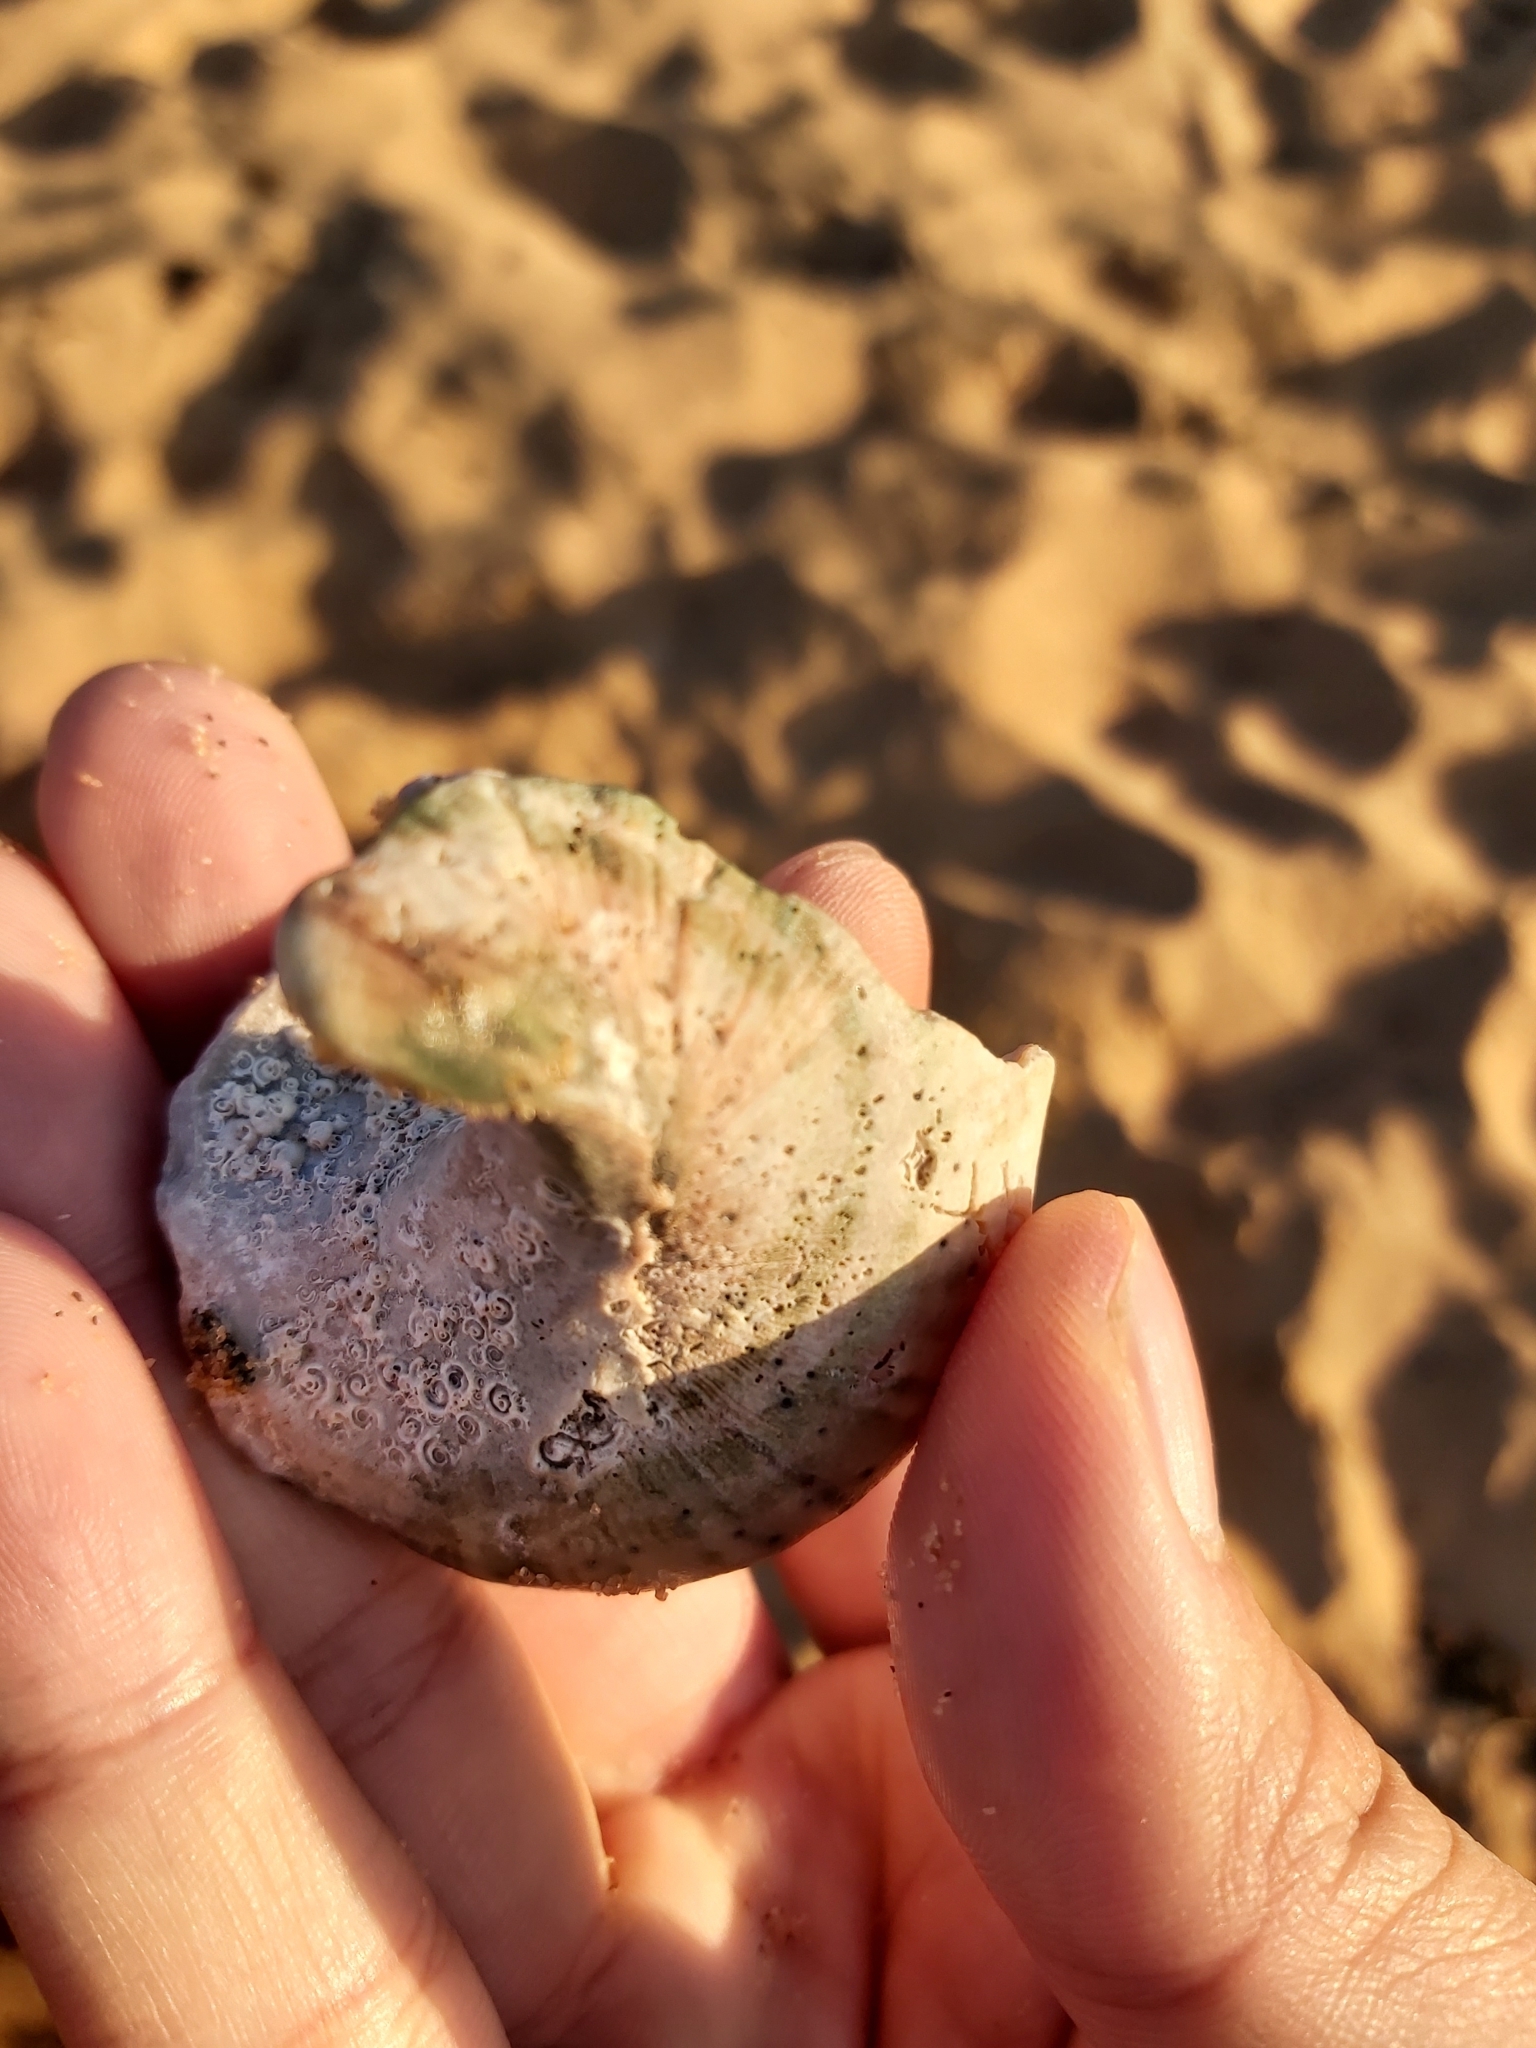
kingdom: Animalia
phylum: Mollusca
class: Gastropoda
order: Trochida
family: Turbinidae
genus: Turbo
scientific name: Turbo militaris
